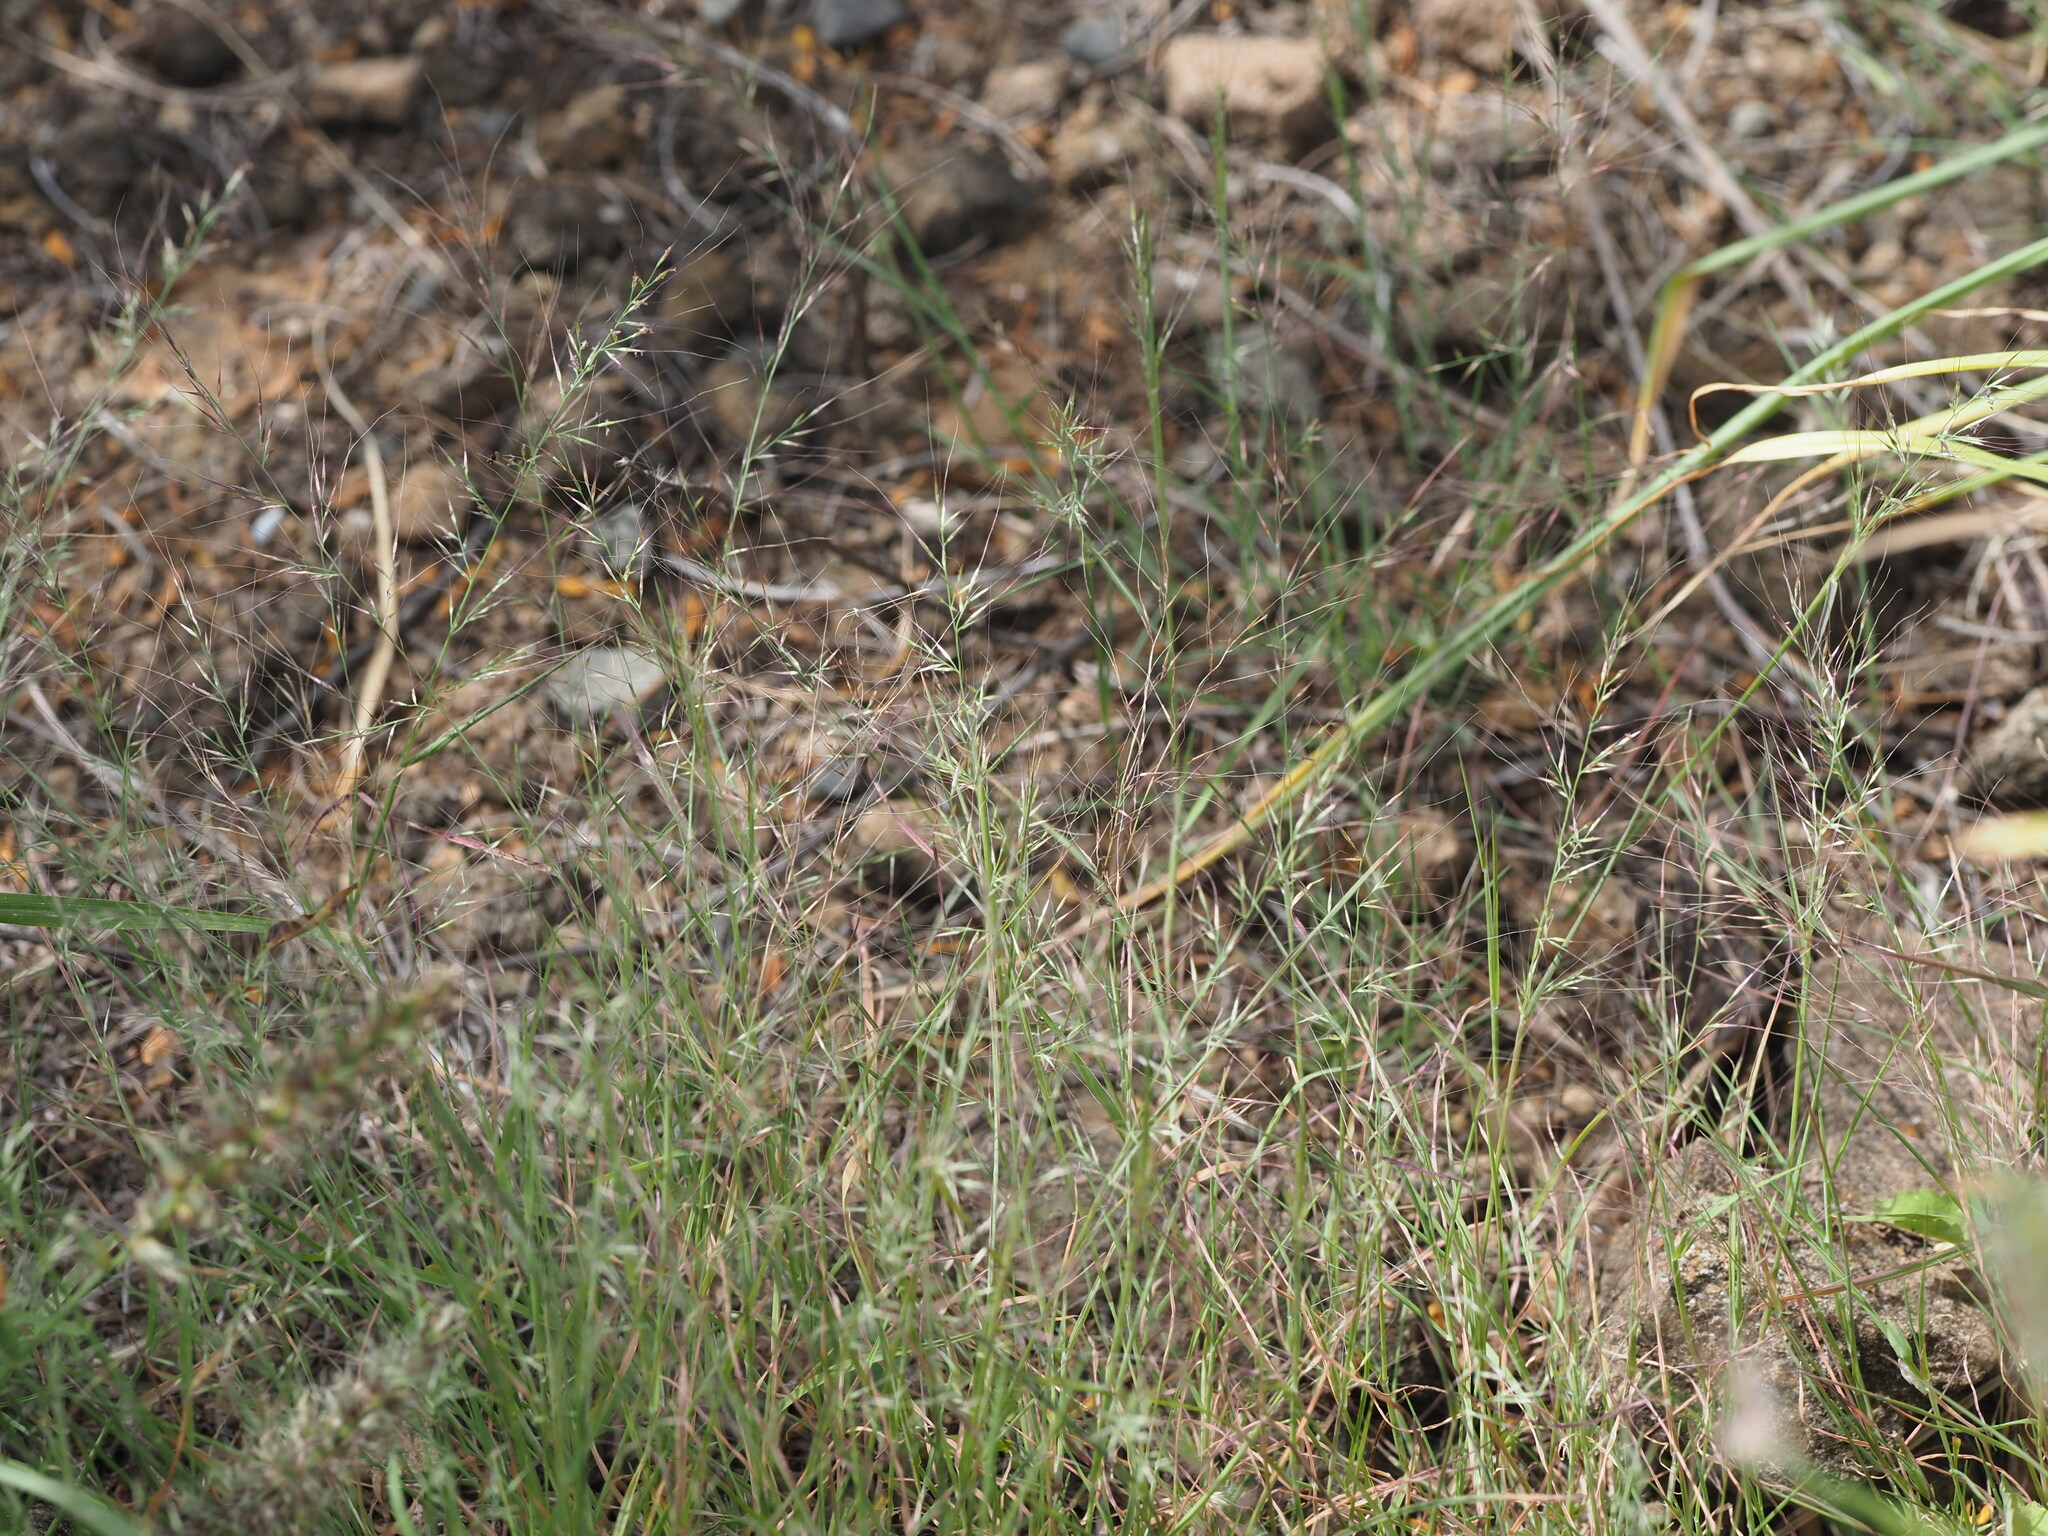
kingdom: Plantae
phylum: Tracheophyta
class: Liliopsida
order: Poales
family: Poaceae
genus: Muhlenbergia
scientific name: Muhlenbergia microsperma
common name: Littleseed muhly
